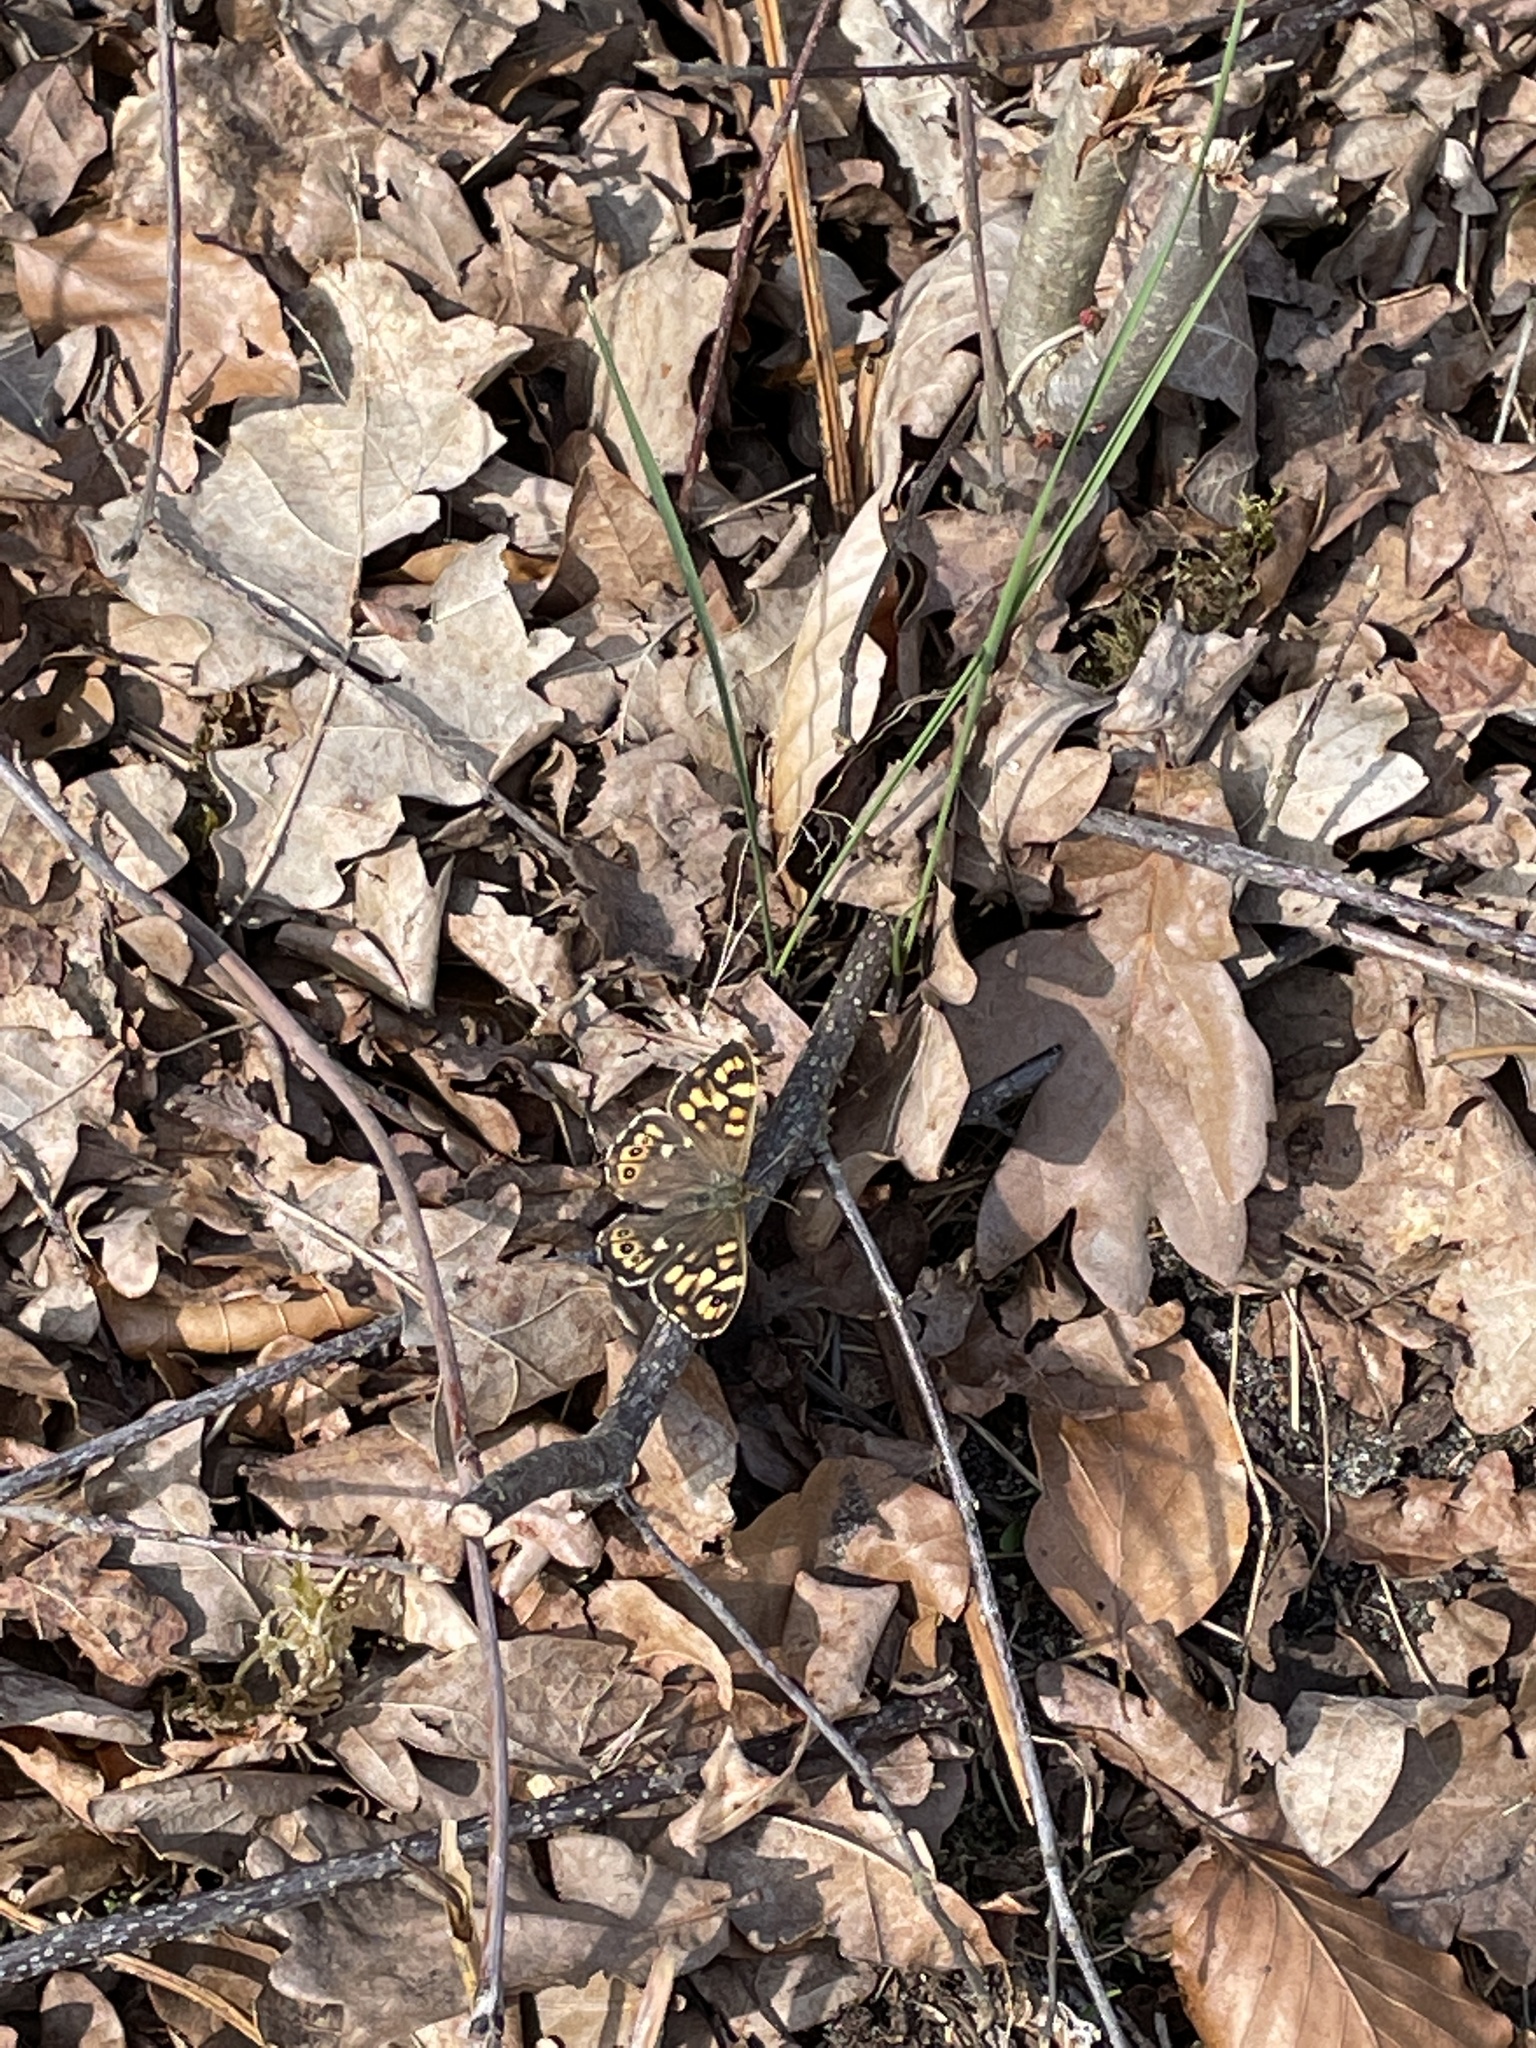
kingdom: Animalia
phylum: Arthropoda
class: Insecta
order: Lepidoptera
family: Nymphalidae
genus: Pararge
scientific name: Pararge aegeria
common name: Speckled wood
